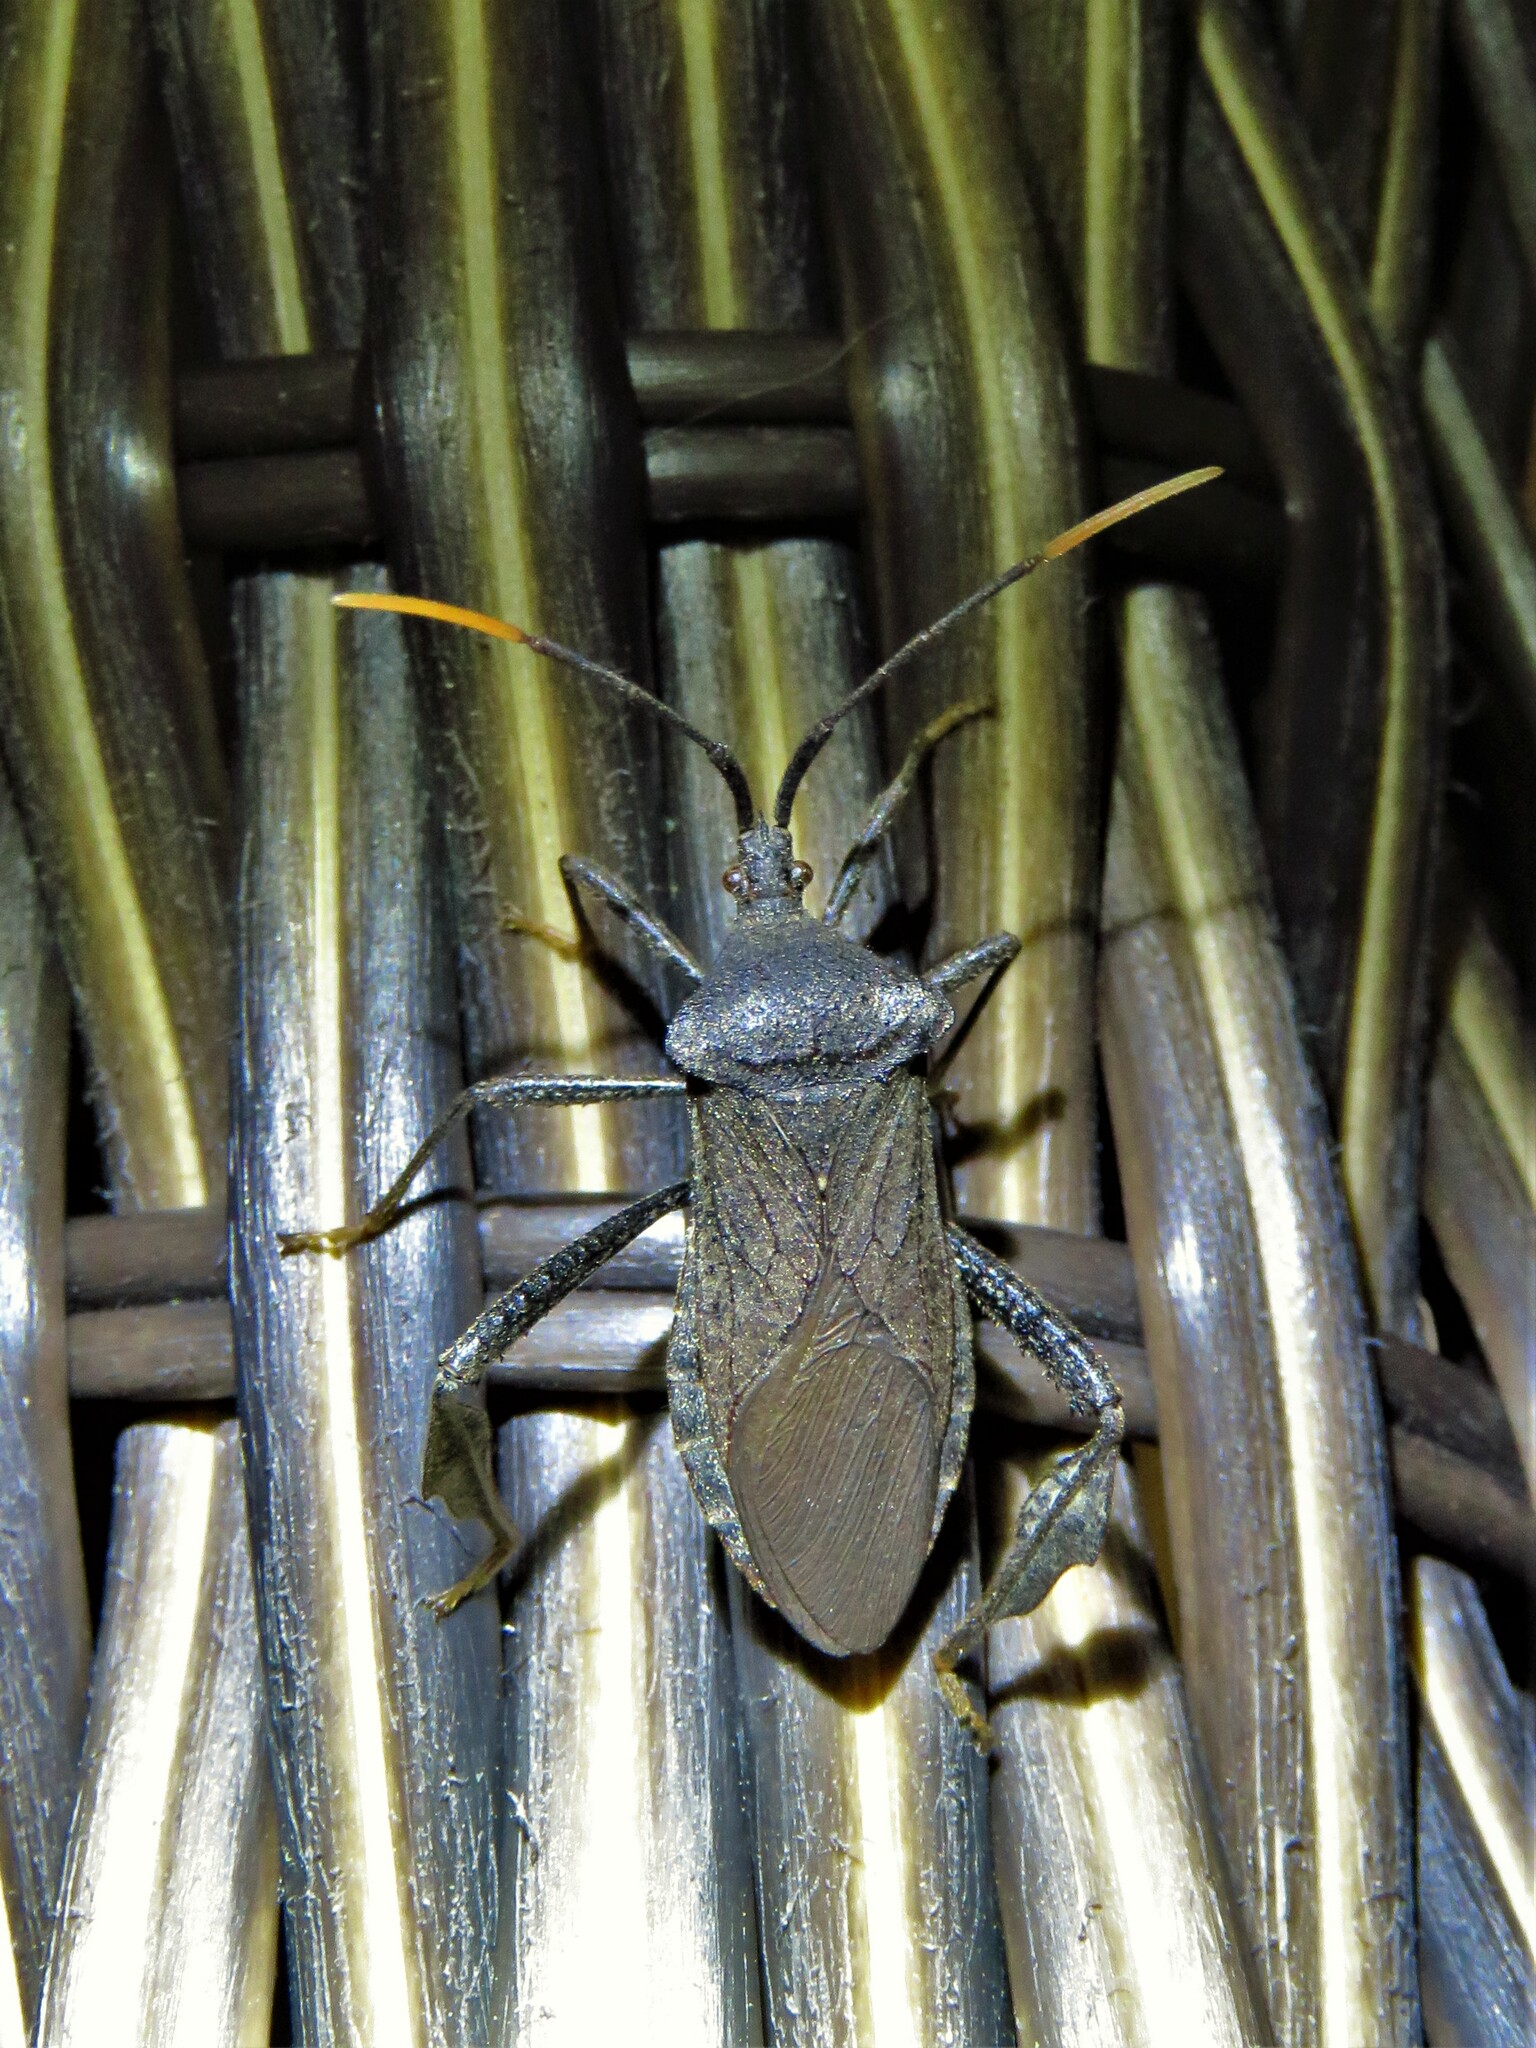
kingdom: Animalia
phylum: Arthropoda
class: Insecta
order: Hemiptera
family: Coreidae
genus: Acanthocephala
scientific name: Acanthocephala terminalis
